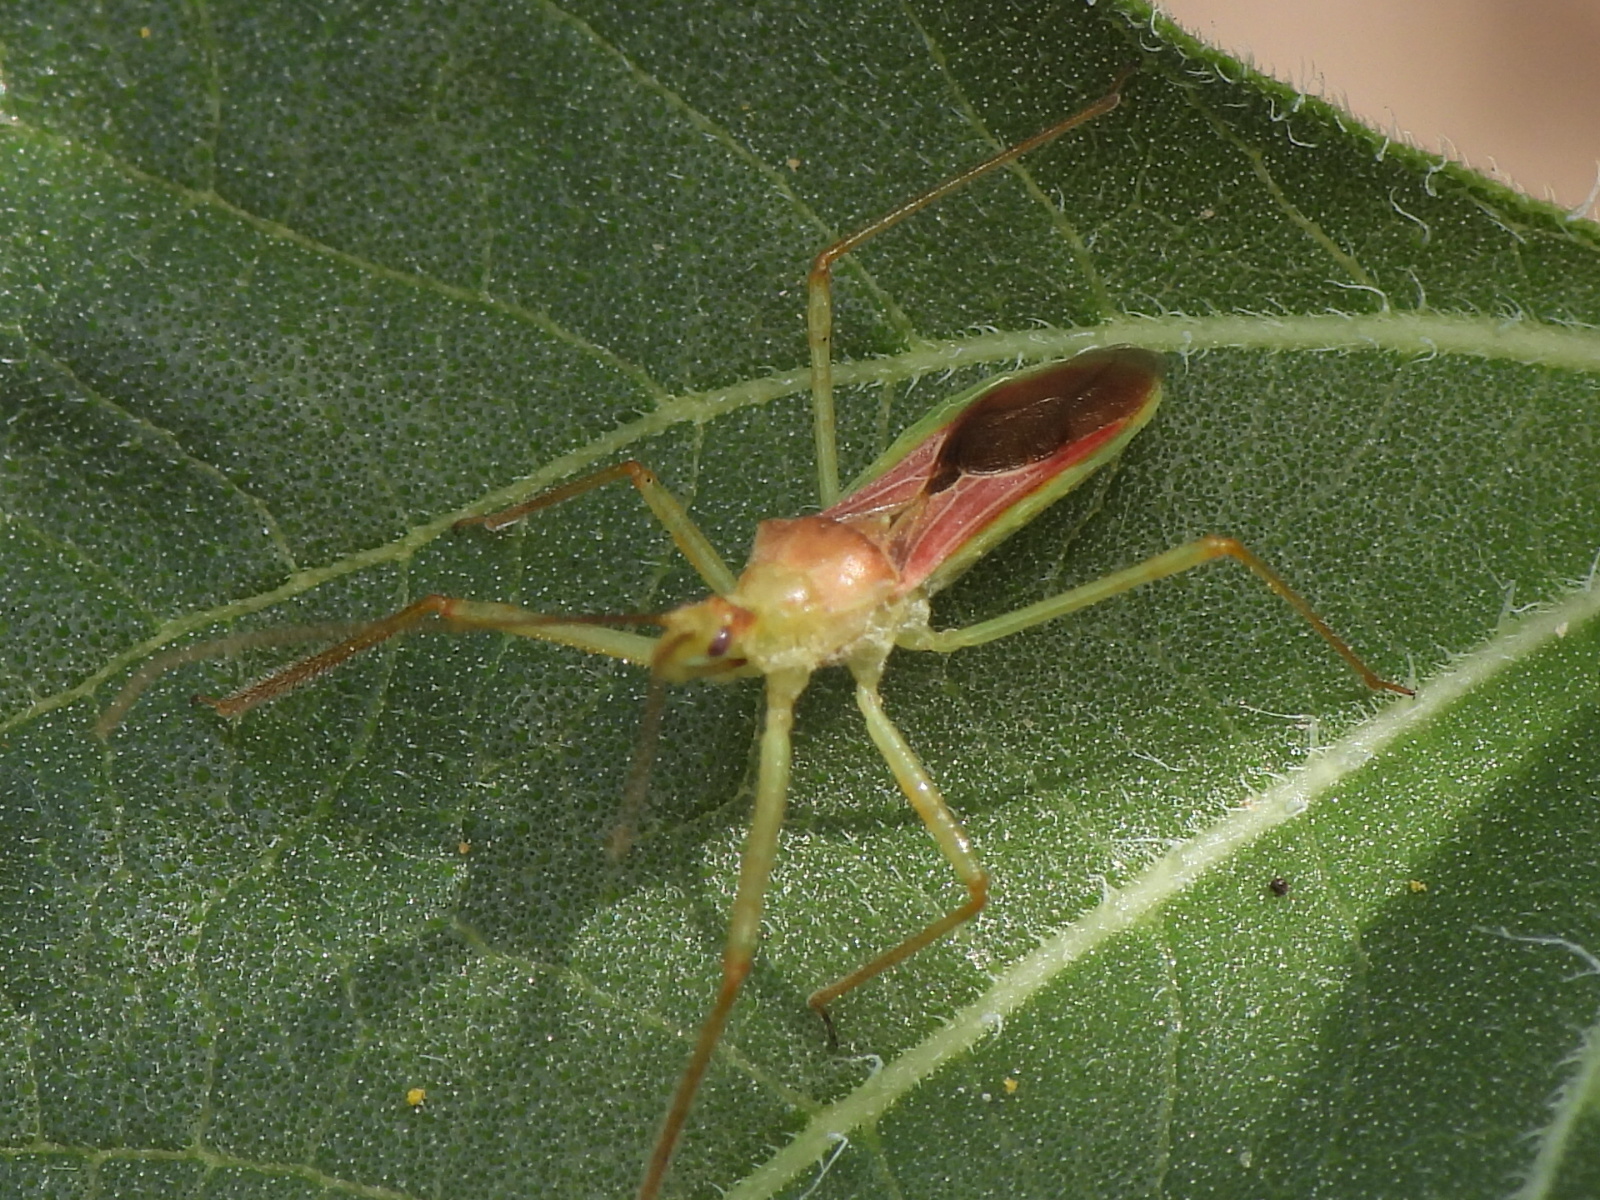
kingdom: Animalia
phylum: Arthropoda
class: Insecta
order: Hemiptera
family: Reduviidae
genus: Zelus
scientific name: Zelus renardii
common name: Assassin bug
